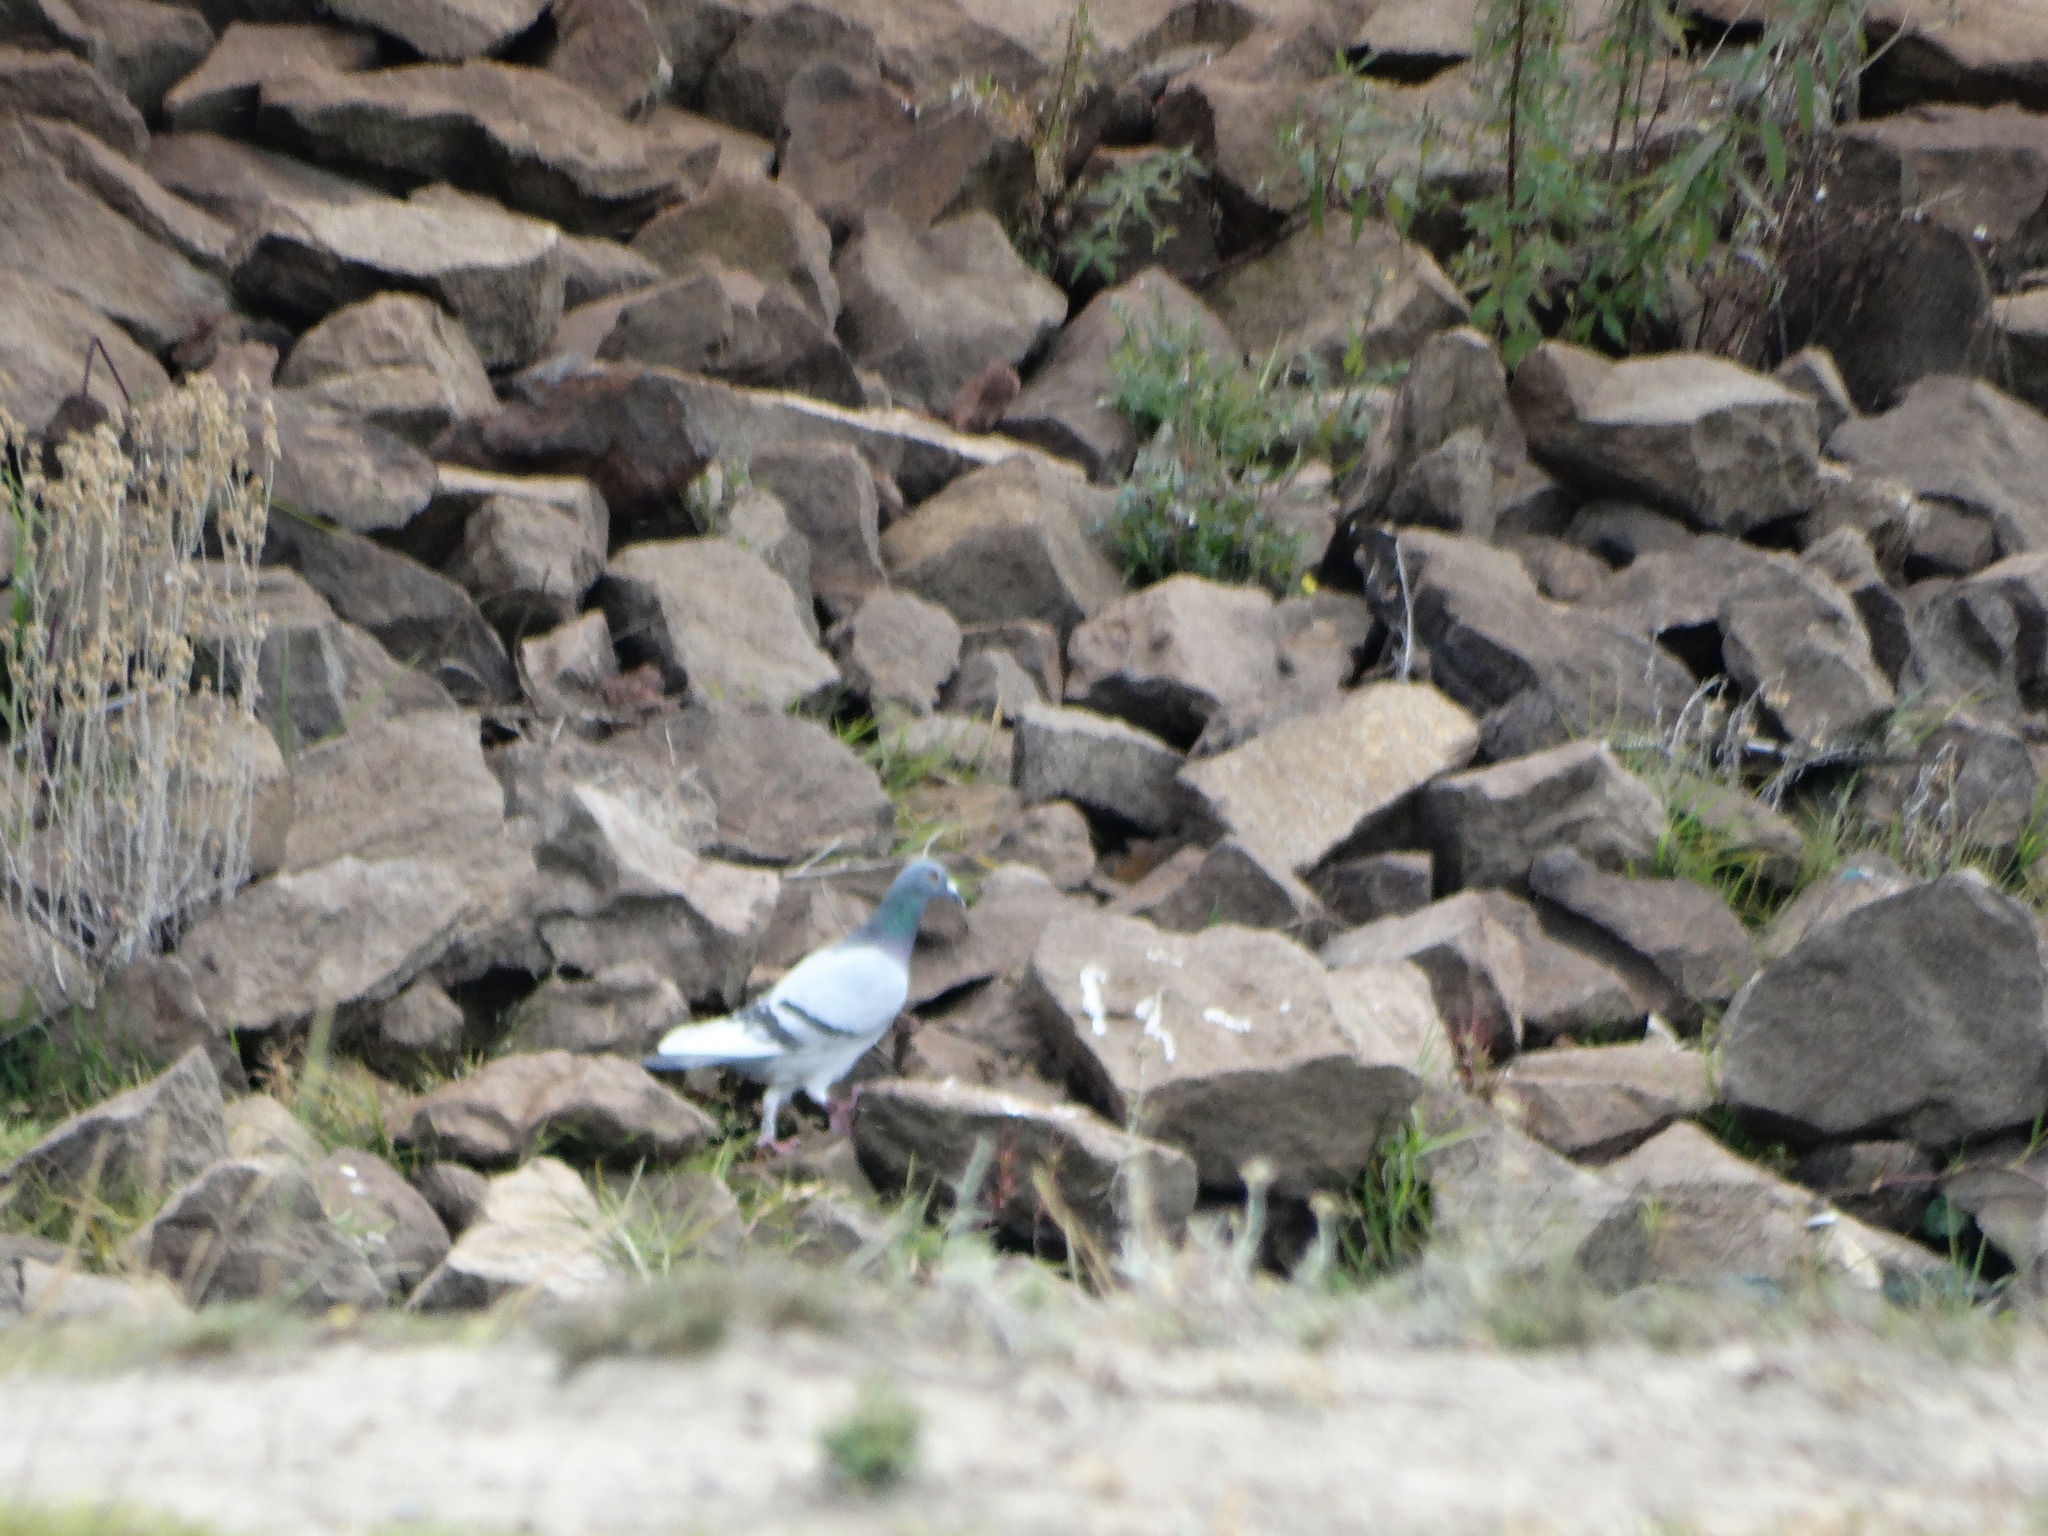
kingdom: Animalia
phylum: Chordata
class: Aves
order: Columbiformes
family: Columbidae
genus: Columba
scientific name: Columba livia
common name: Rock pigeon
